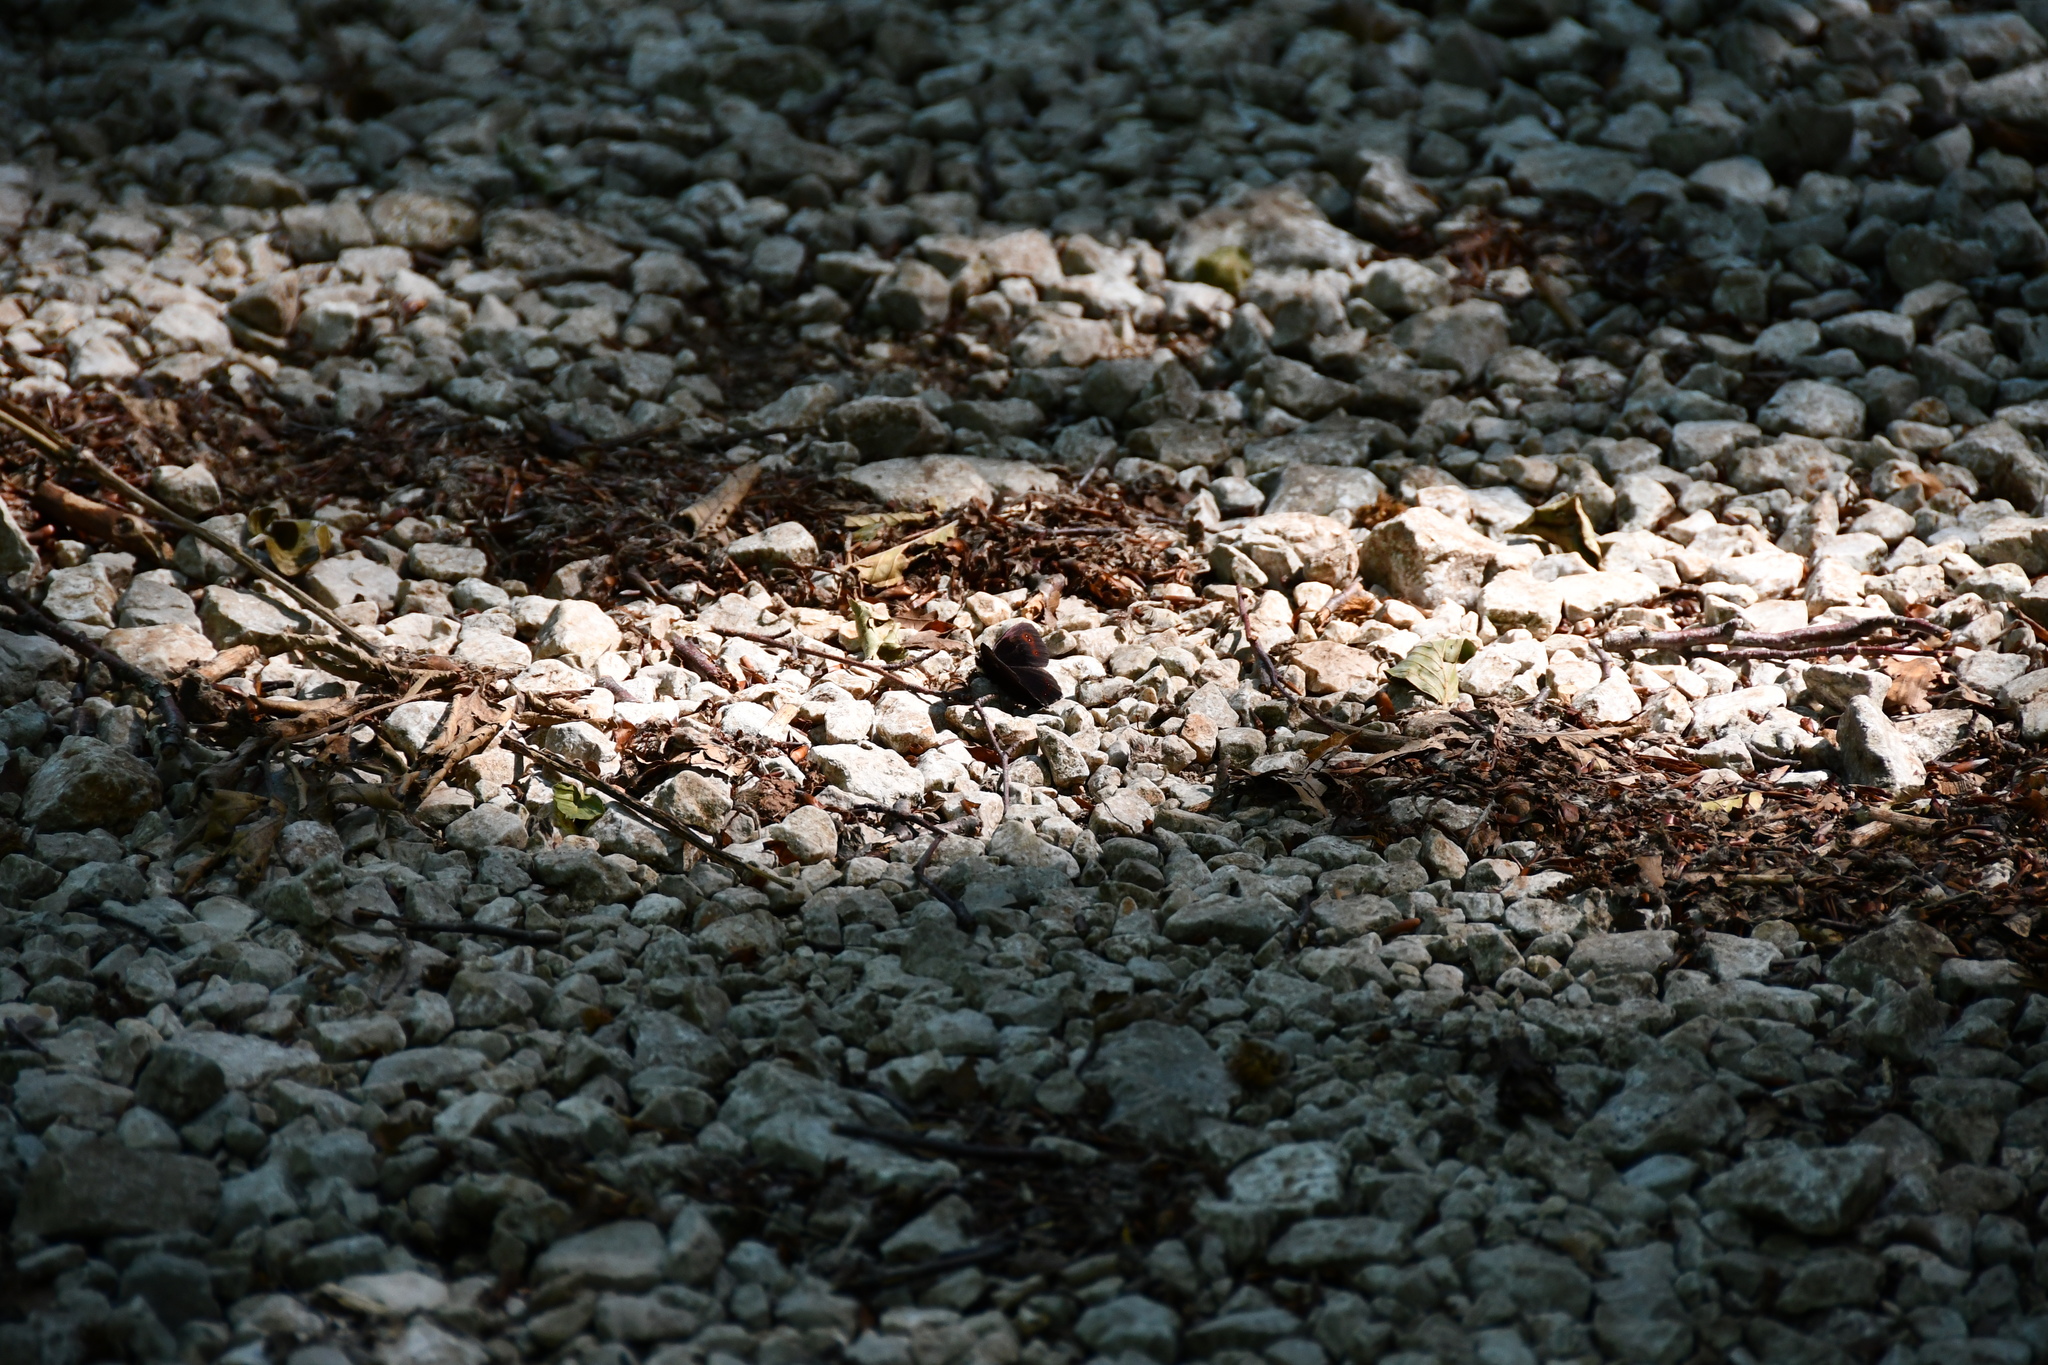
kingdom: Animalia
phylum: Arthropoda
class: Insecta
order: Lepidoptera
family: Nymphalidae
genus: Erebia
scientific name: Erebia aethiops
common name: Scotch argus
